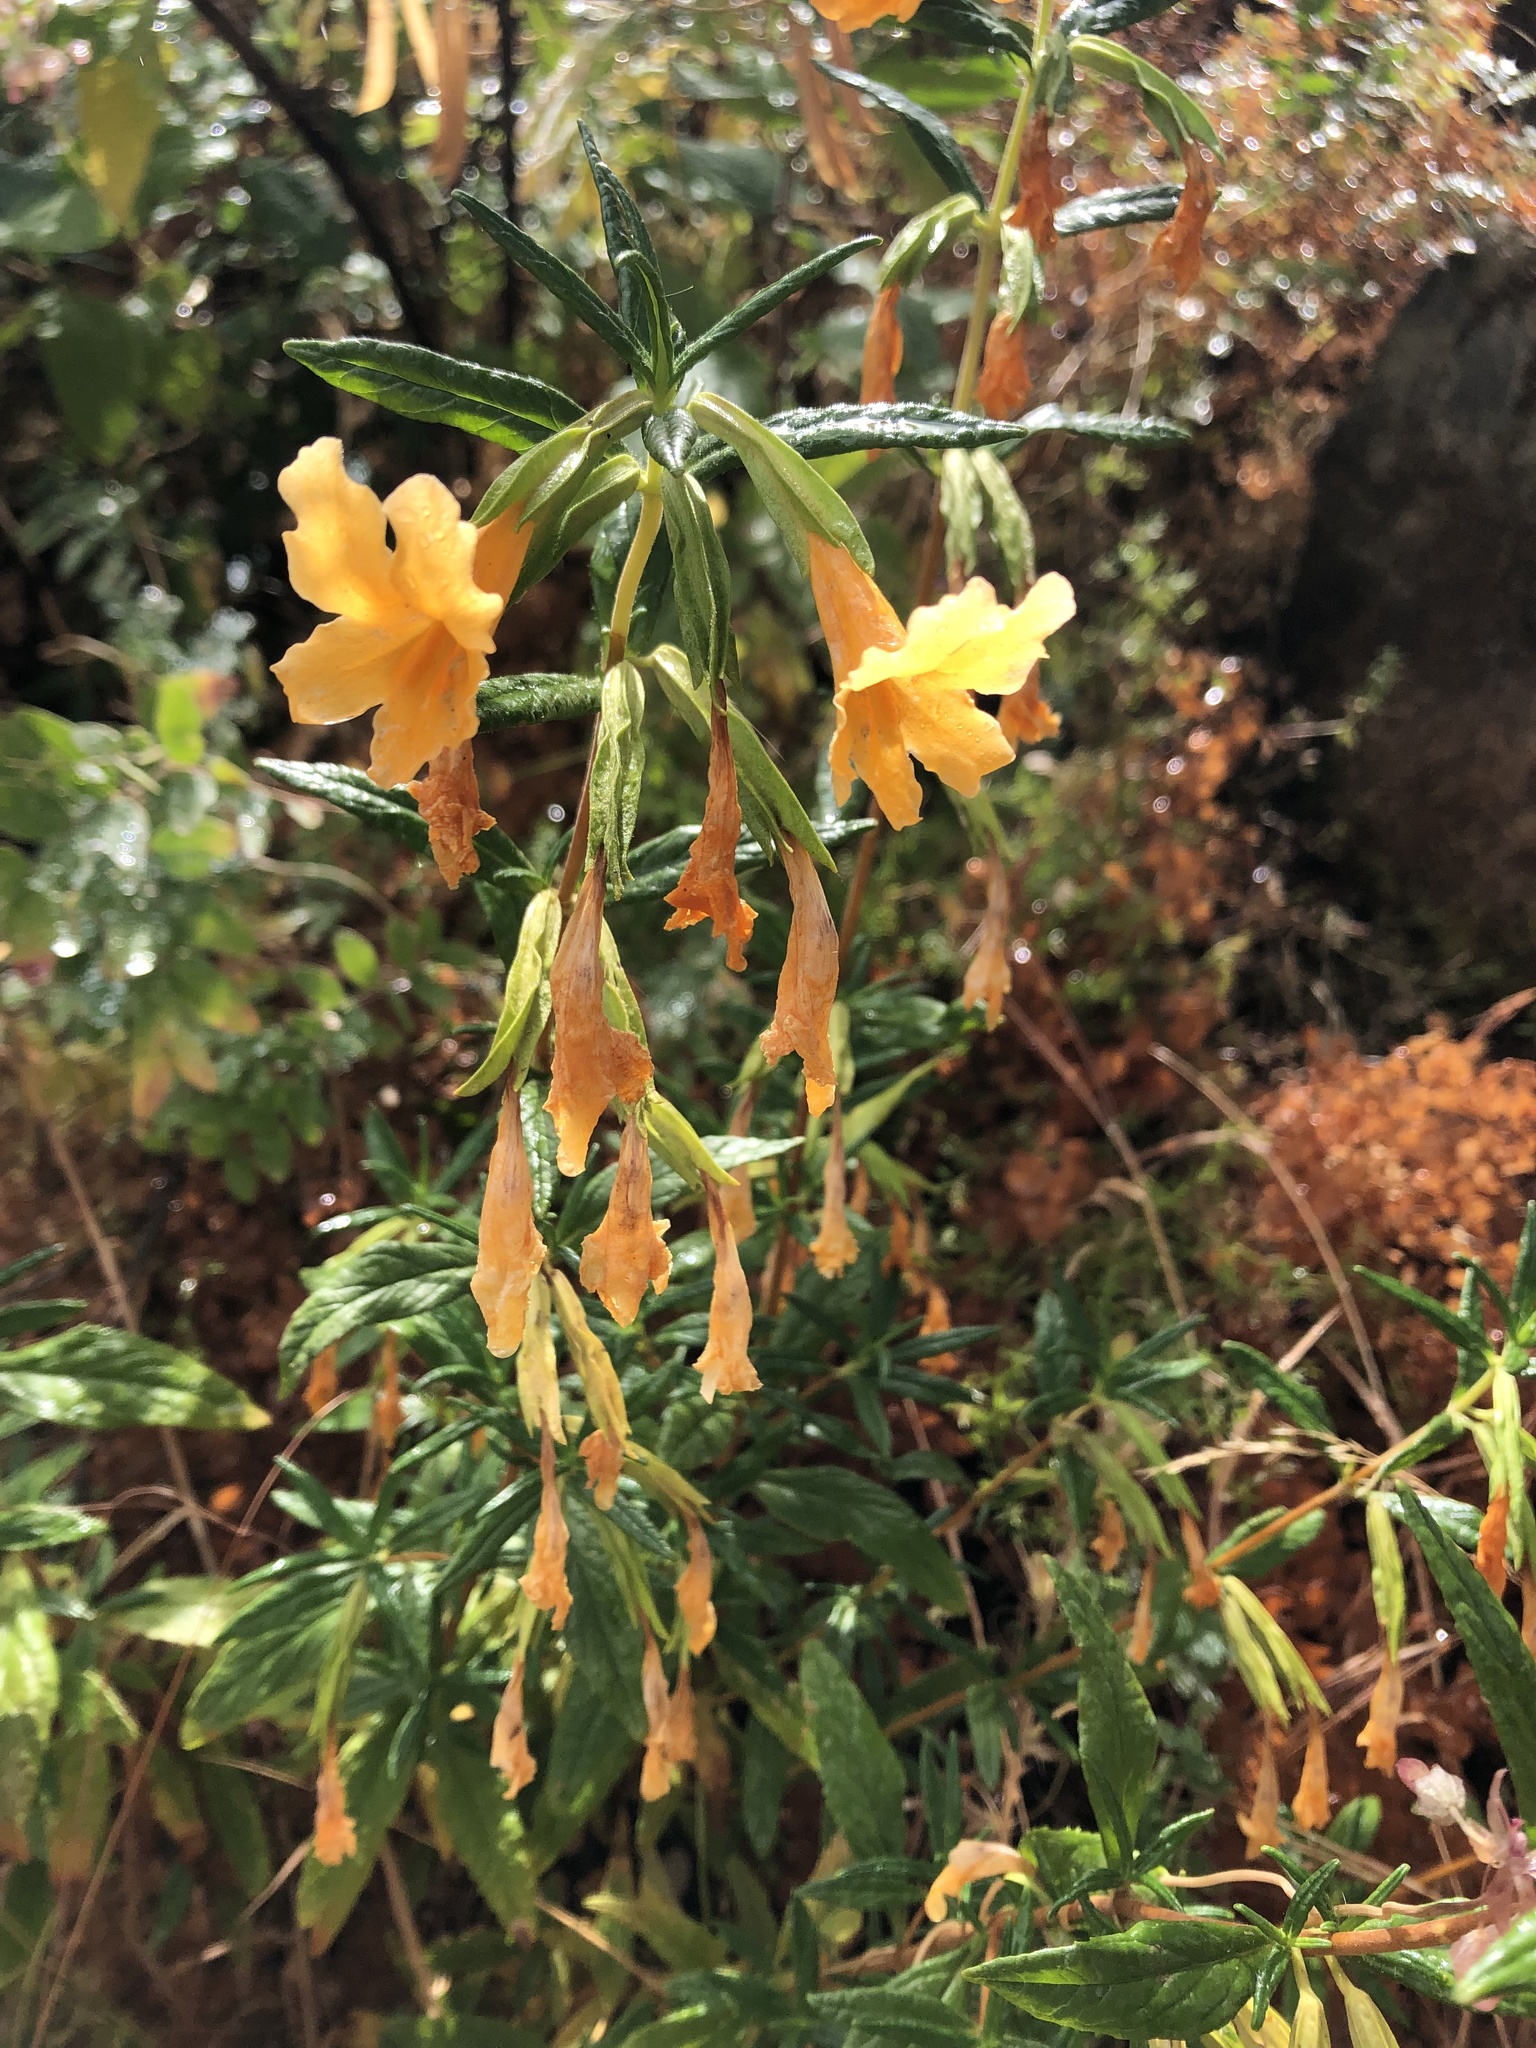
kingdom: Plantae
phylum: Tracheophyta
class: Magnoliopsida
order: Lamiales
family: Phrymaceae
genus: Diplacus
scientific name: Diplacus aurantiacus
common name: Bush monkey-flower
